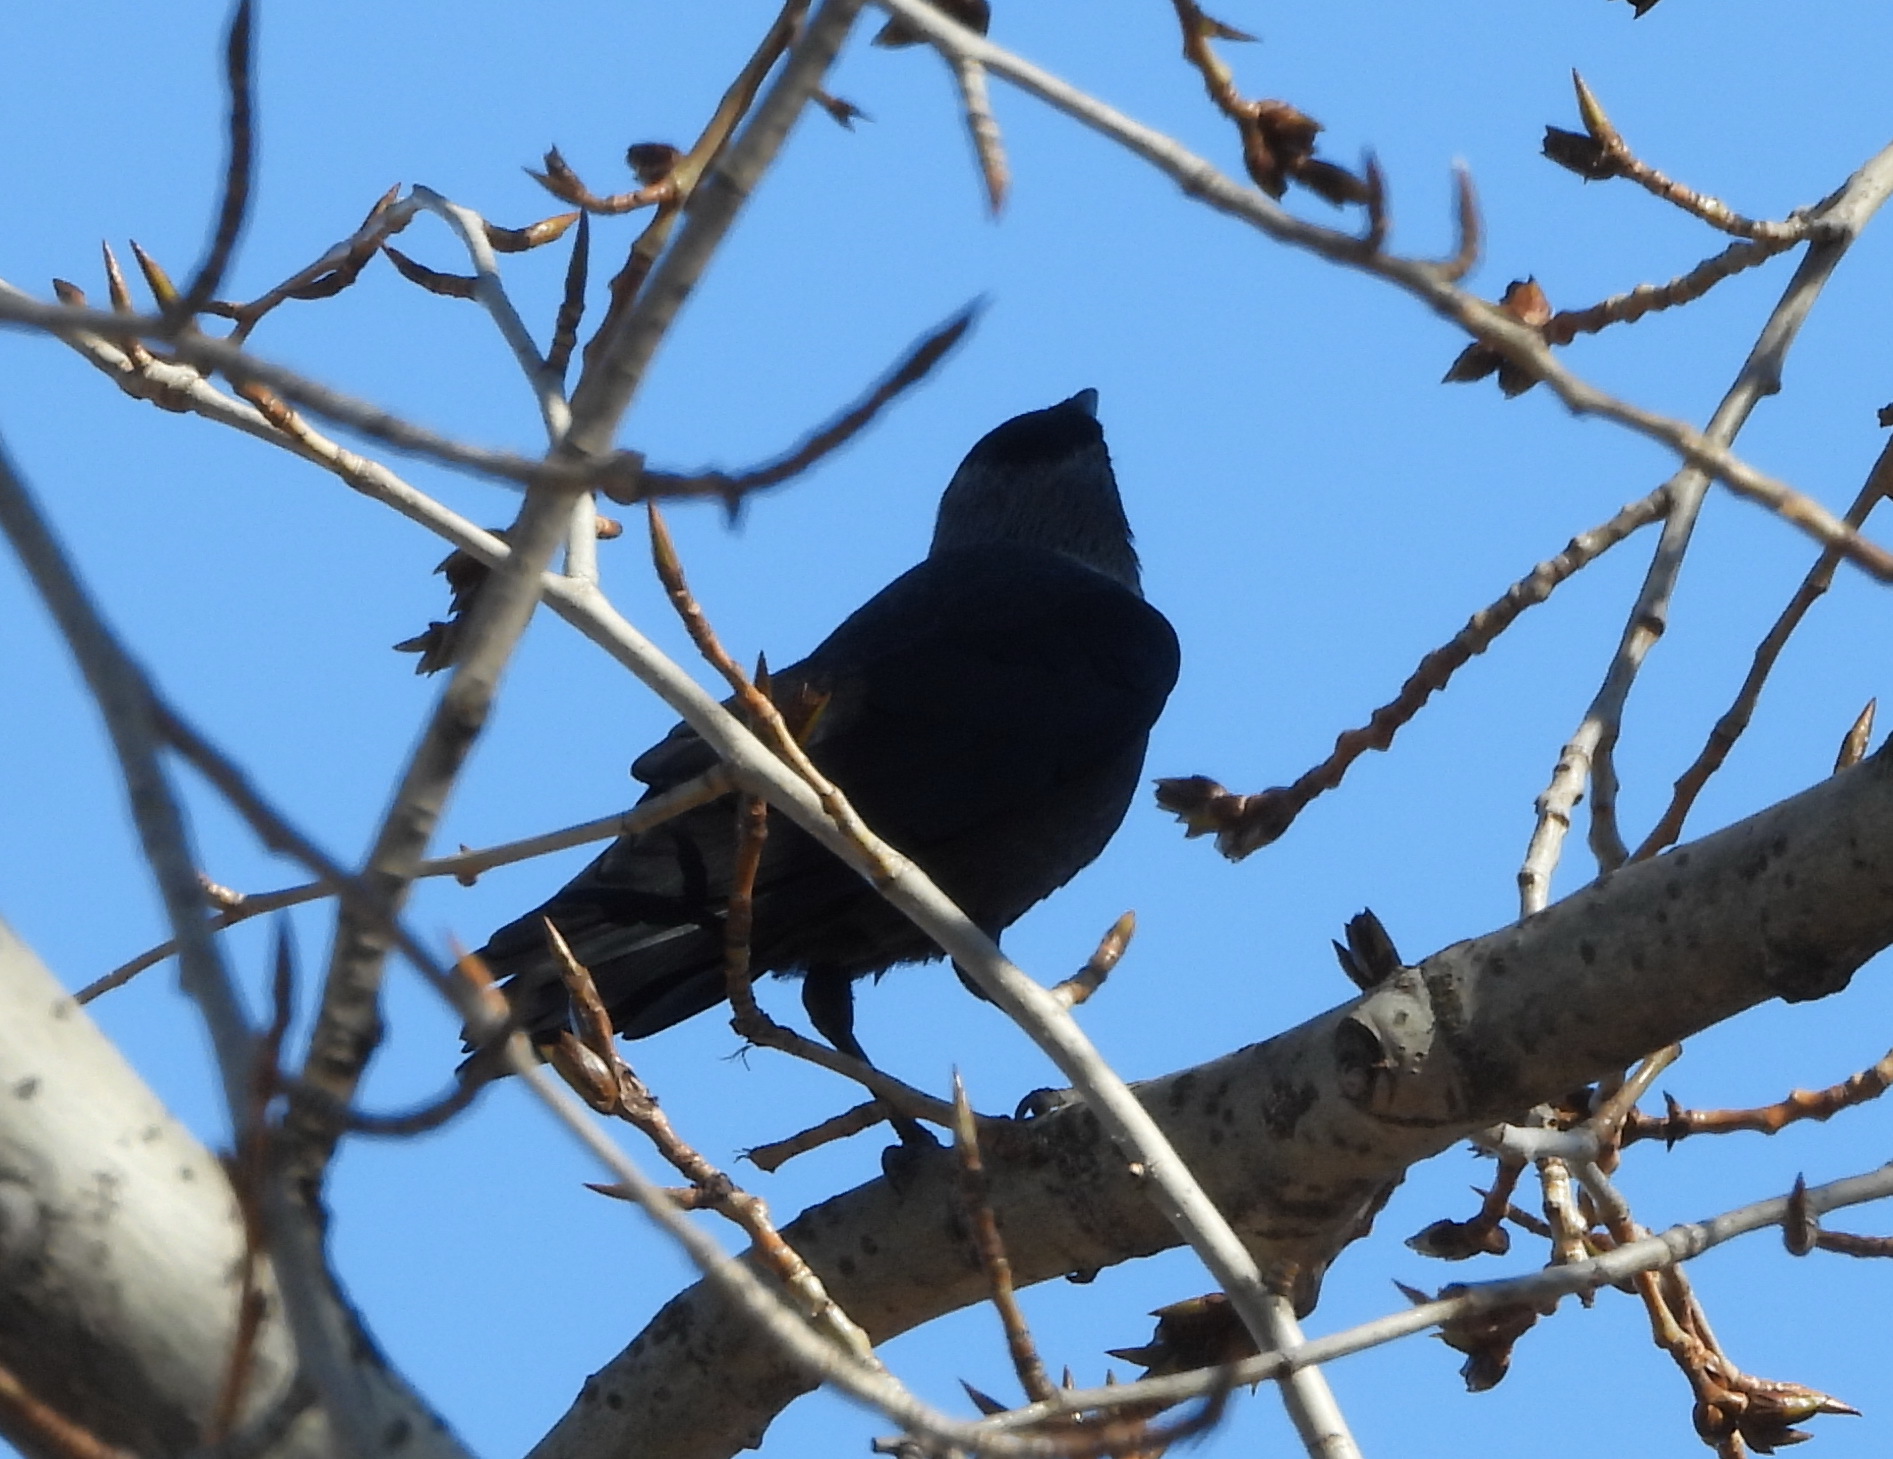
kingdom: Animalia
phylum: Chordata
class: Aves
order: Passeriformes
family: Corvidae
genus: Coloeus
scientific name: Coloeus monedula
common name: Western jackdaw
